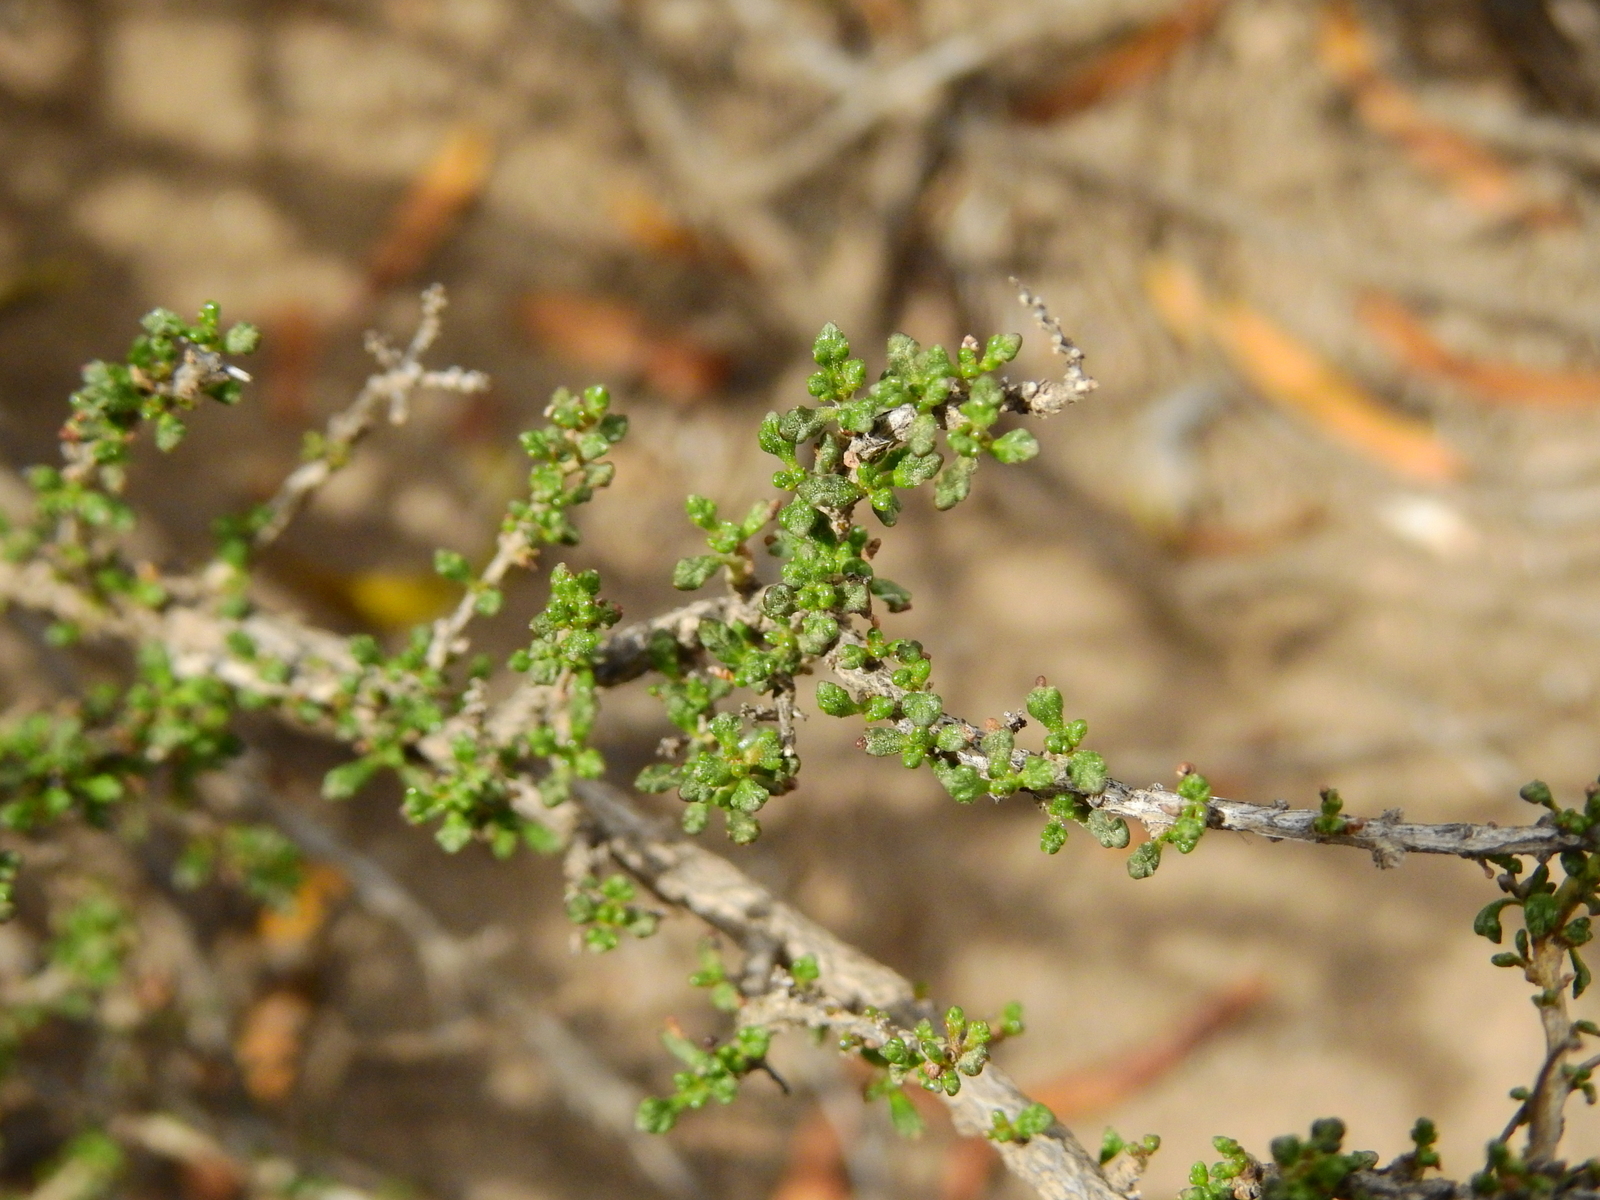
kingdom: Plantae
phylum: Tracheophyta
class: Magnoliopsida
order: Lamiales
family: Verbenaceae
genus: Acantholippia
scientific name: Acantholippia seriphioides
